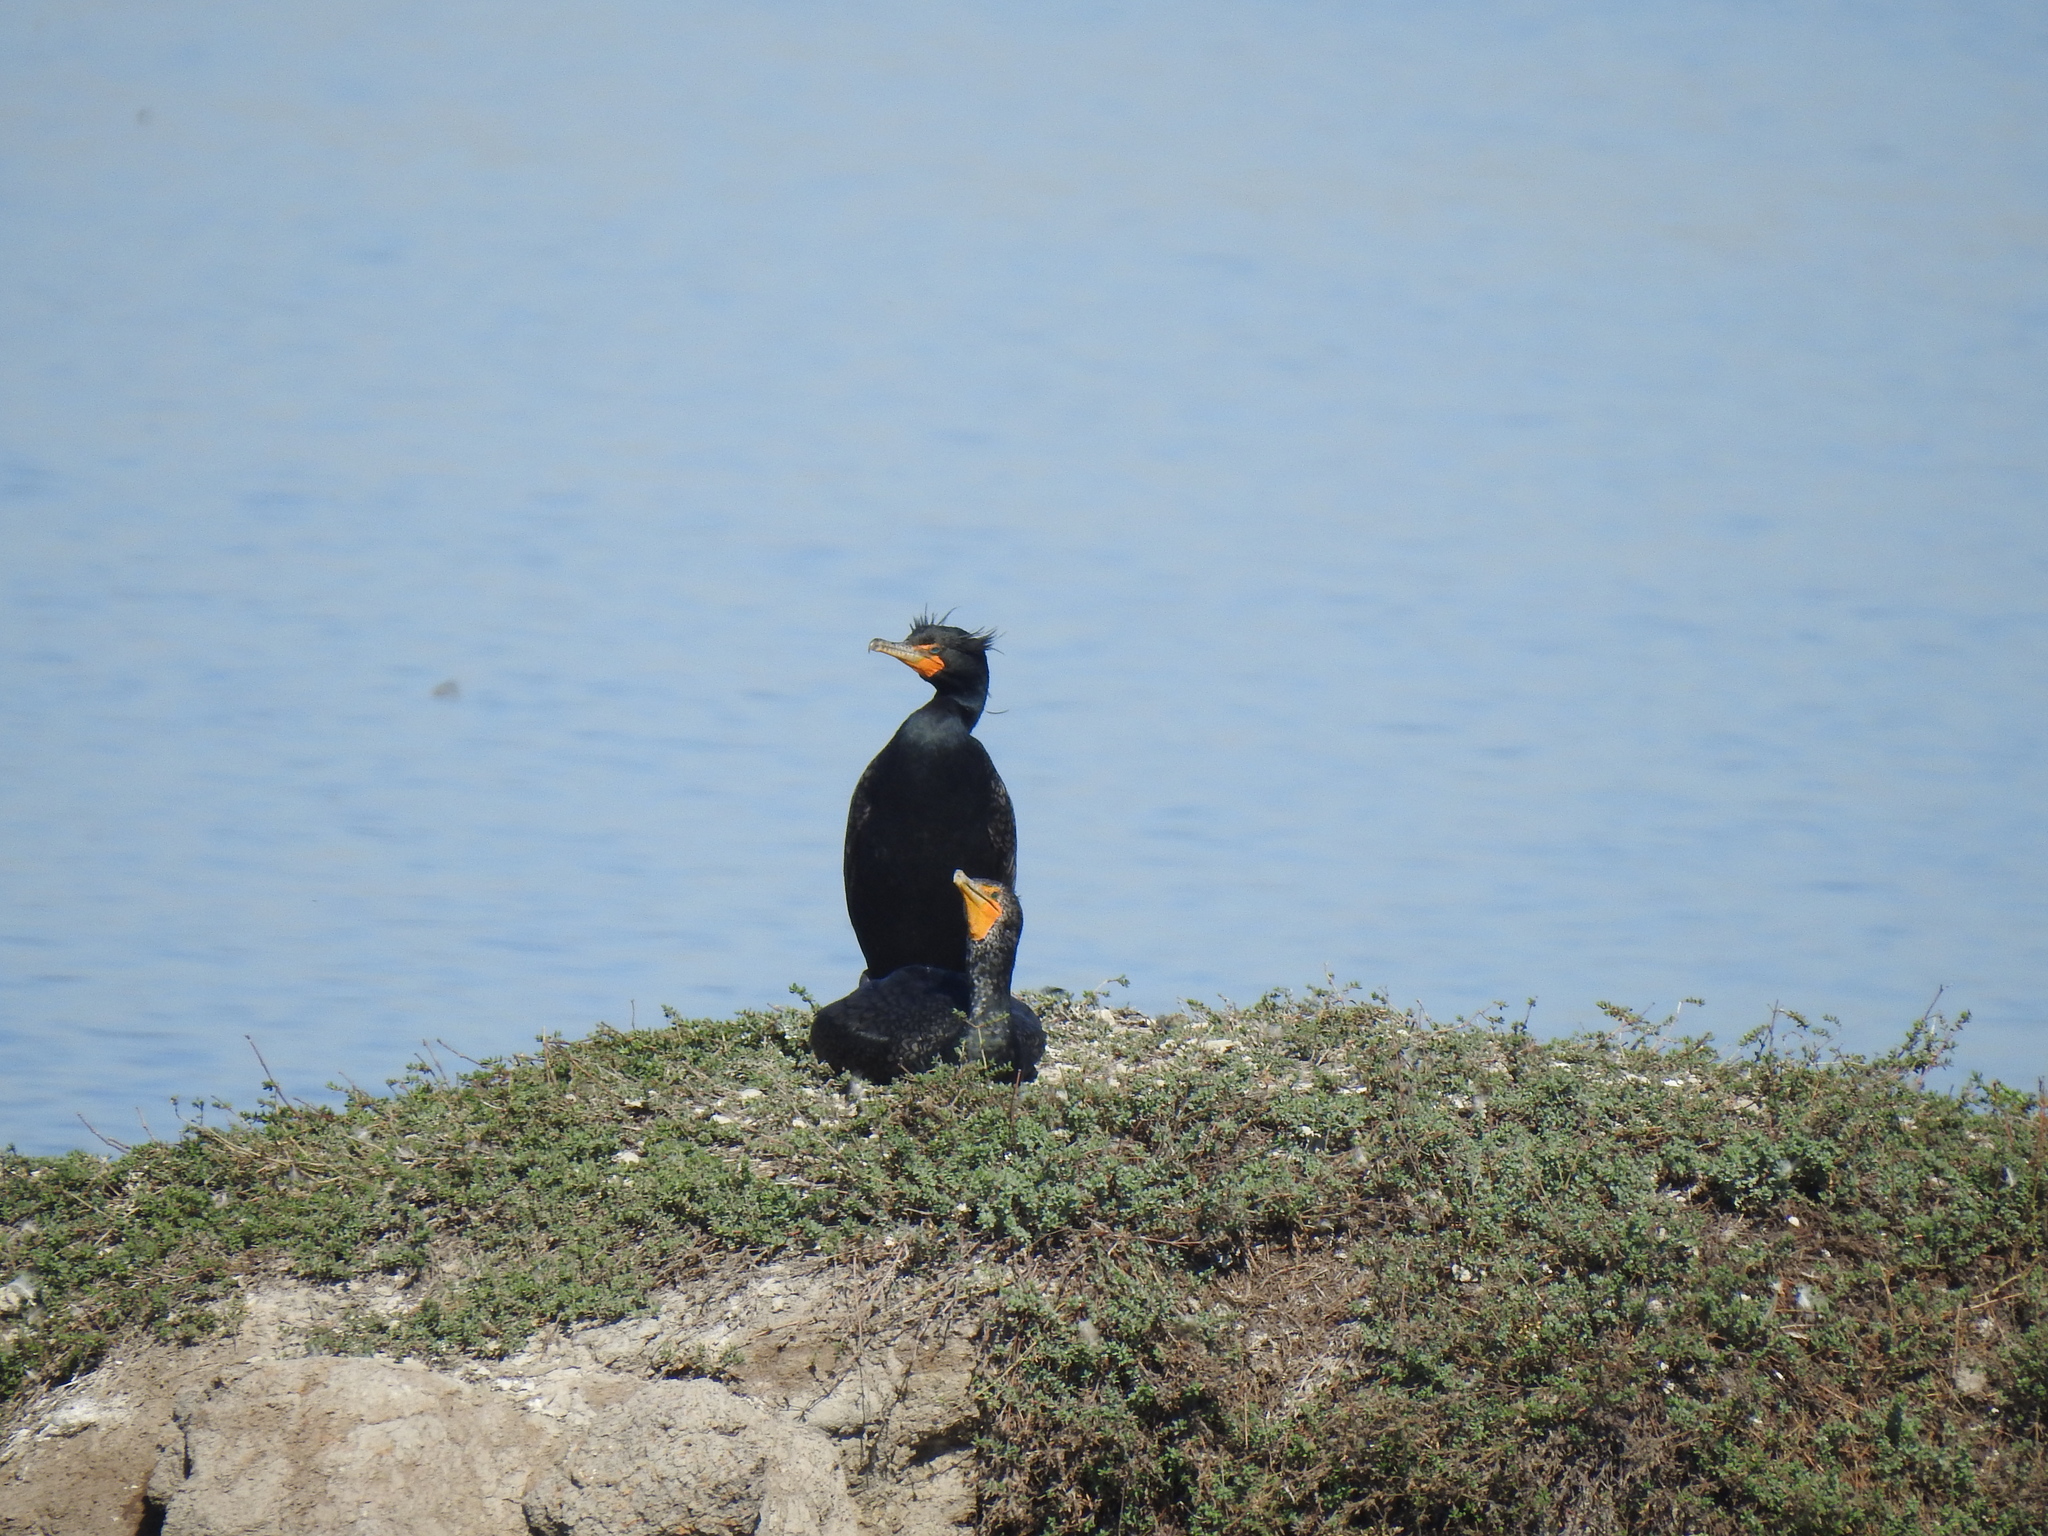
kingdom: Animalia
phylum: Chordata
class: Aves
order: Suliformes
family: Phalacrocoracidae
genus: Phalacrocorax
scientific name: Phalacrocorax auritus
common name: Double-crested cormorant
